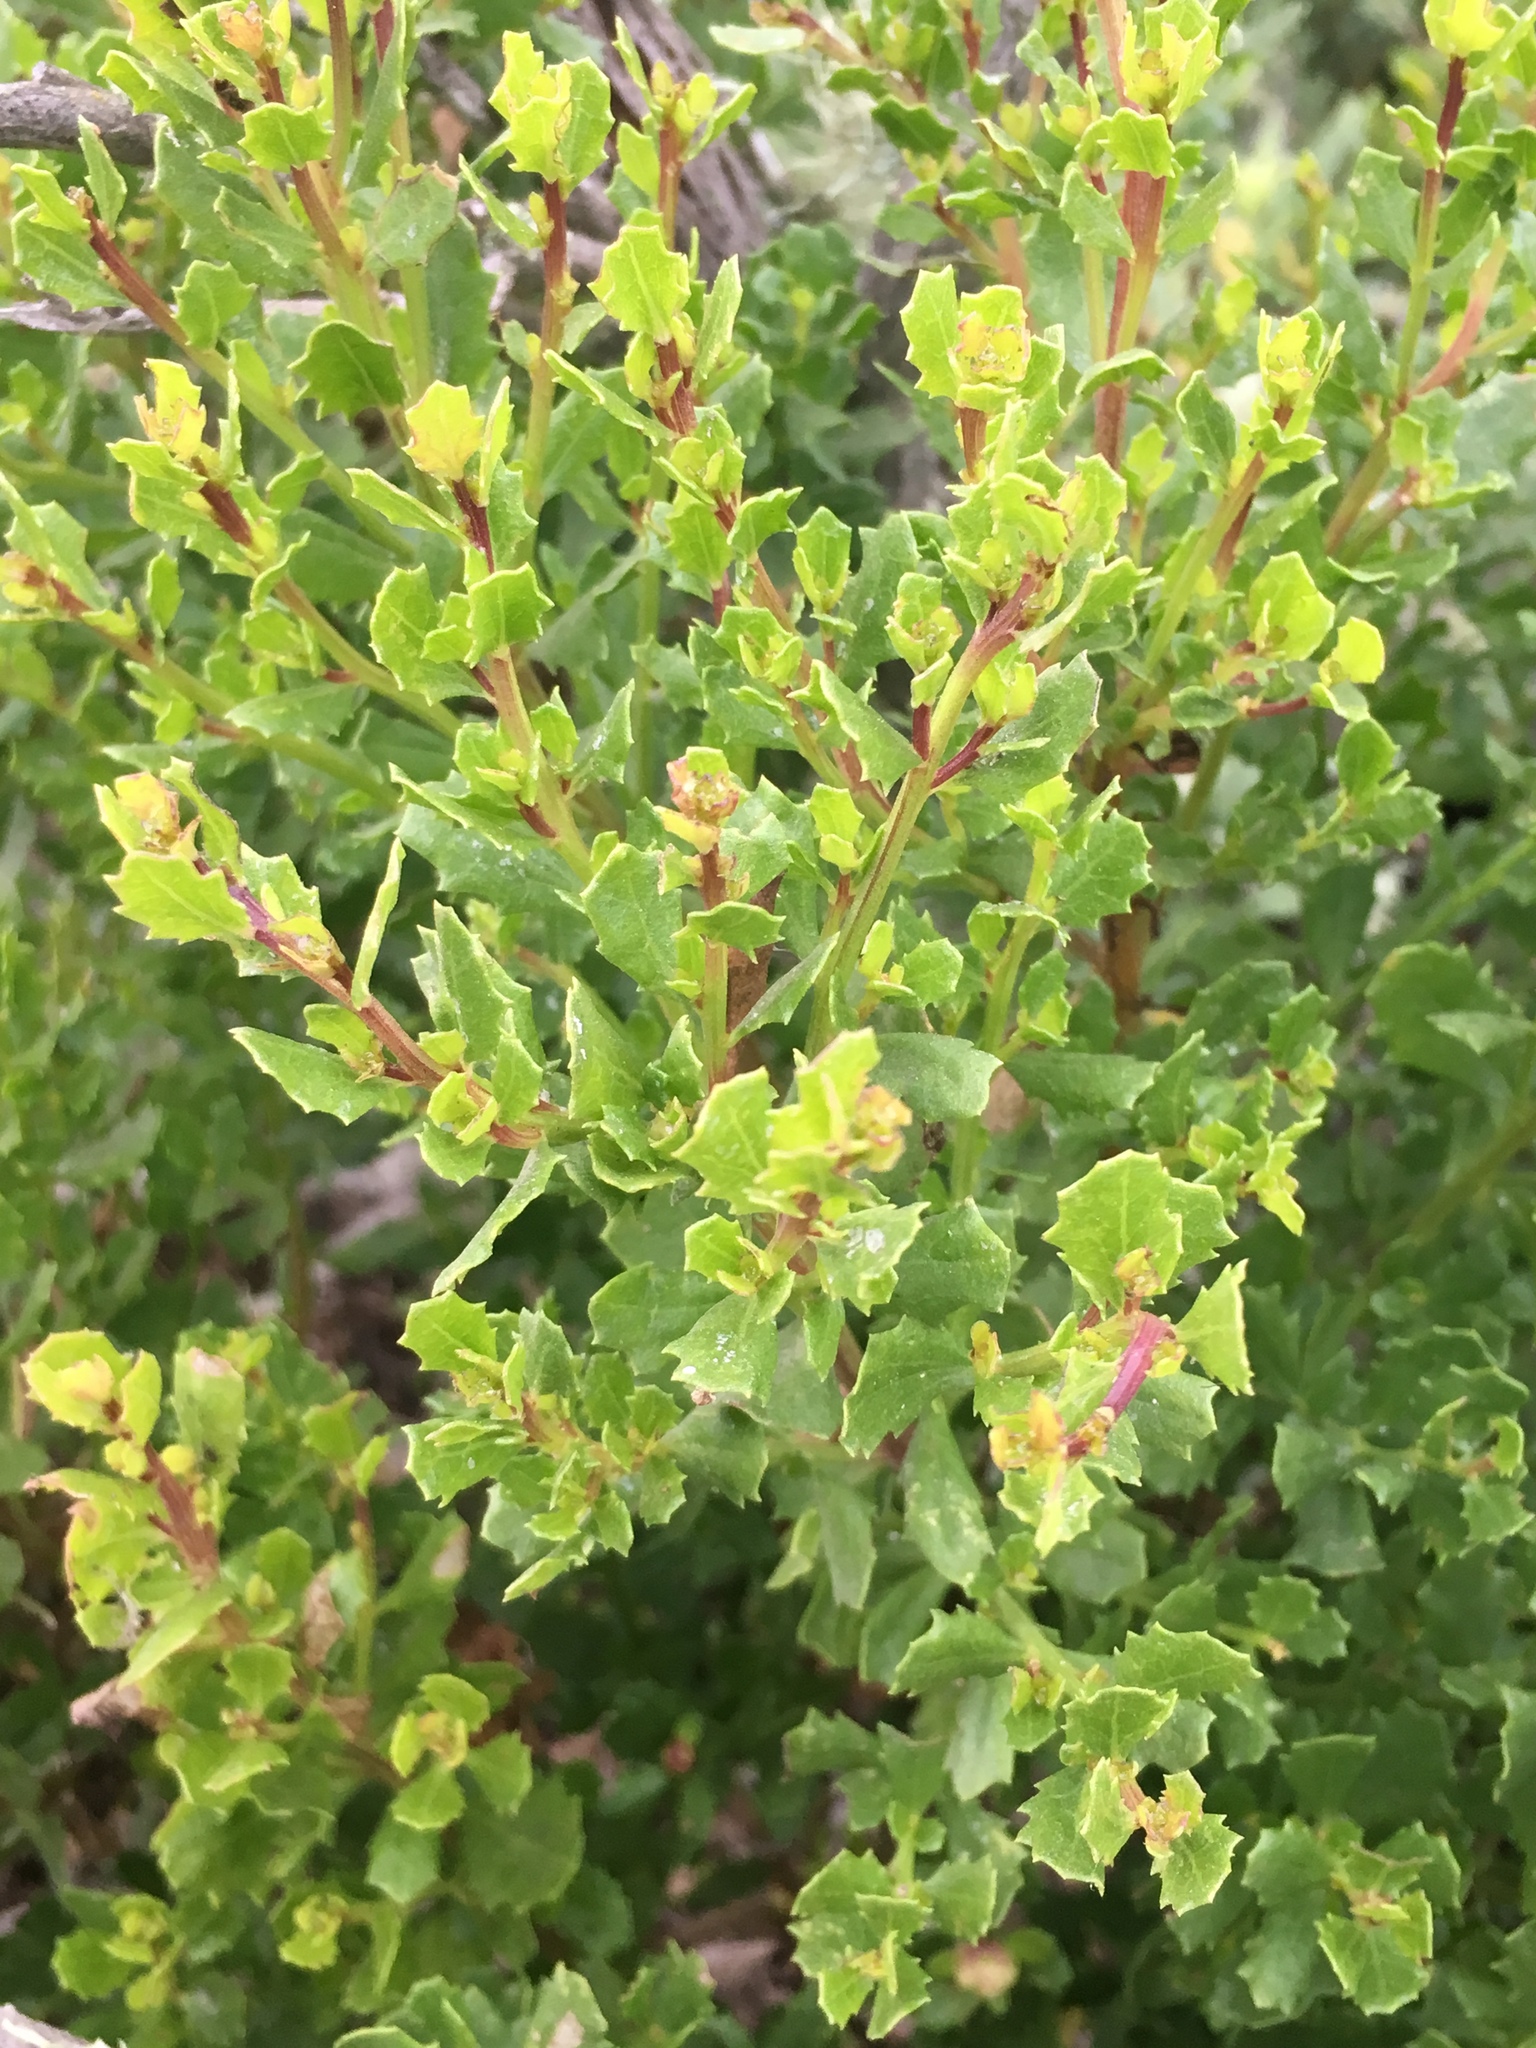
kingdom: Plantae
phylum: Tracheophyta
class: Magnoliopsida
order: Asterales
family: Asteraceae
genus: Baccharis
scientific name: Baccharis pilularis
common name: Coyotebrush
